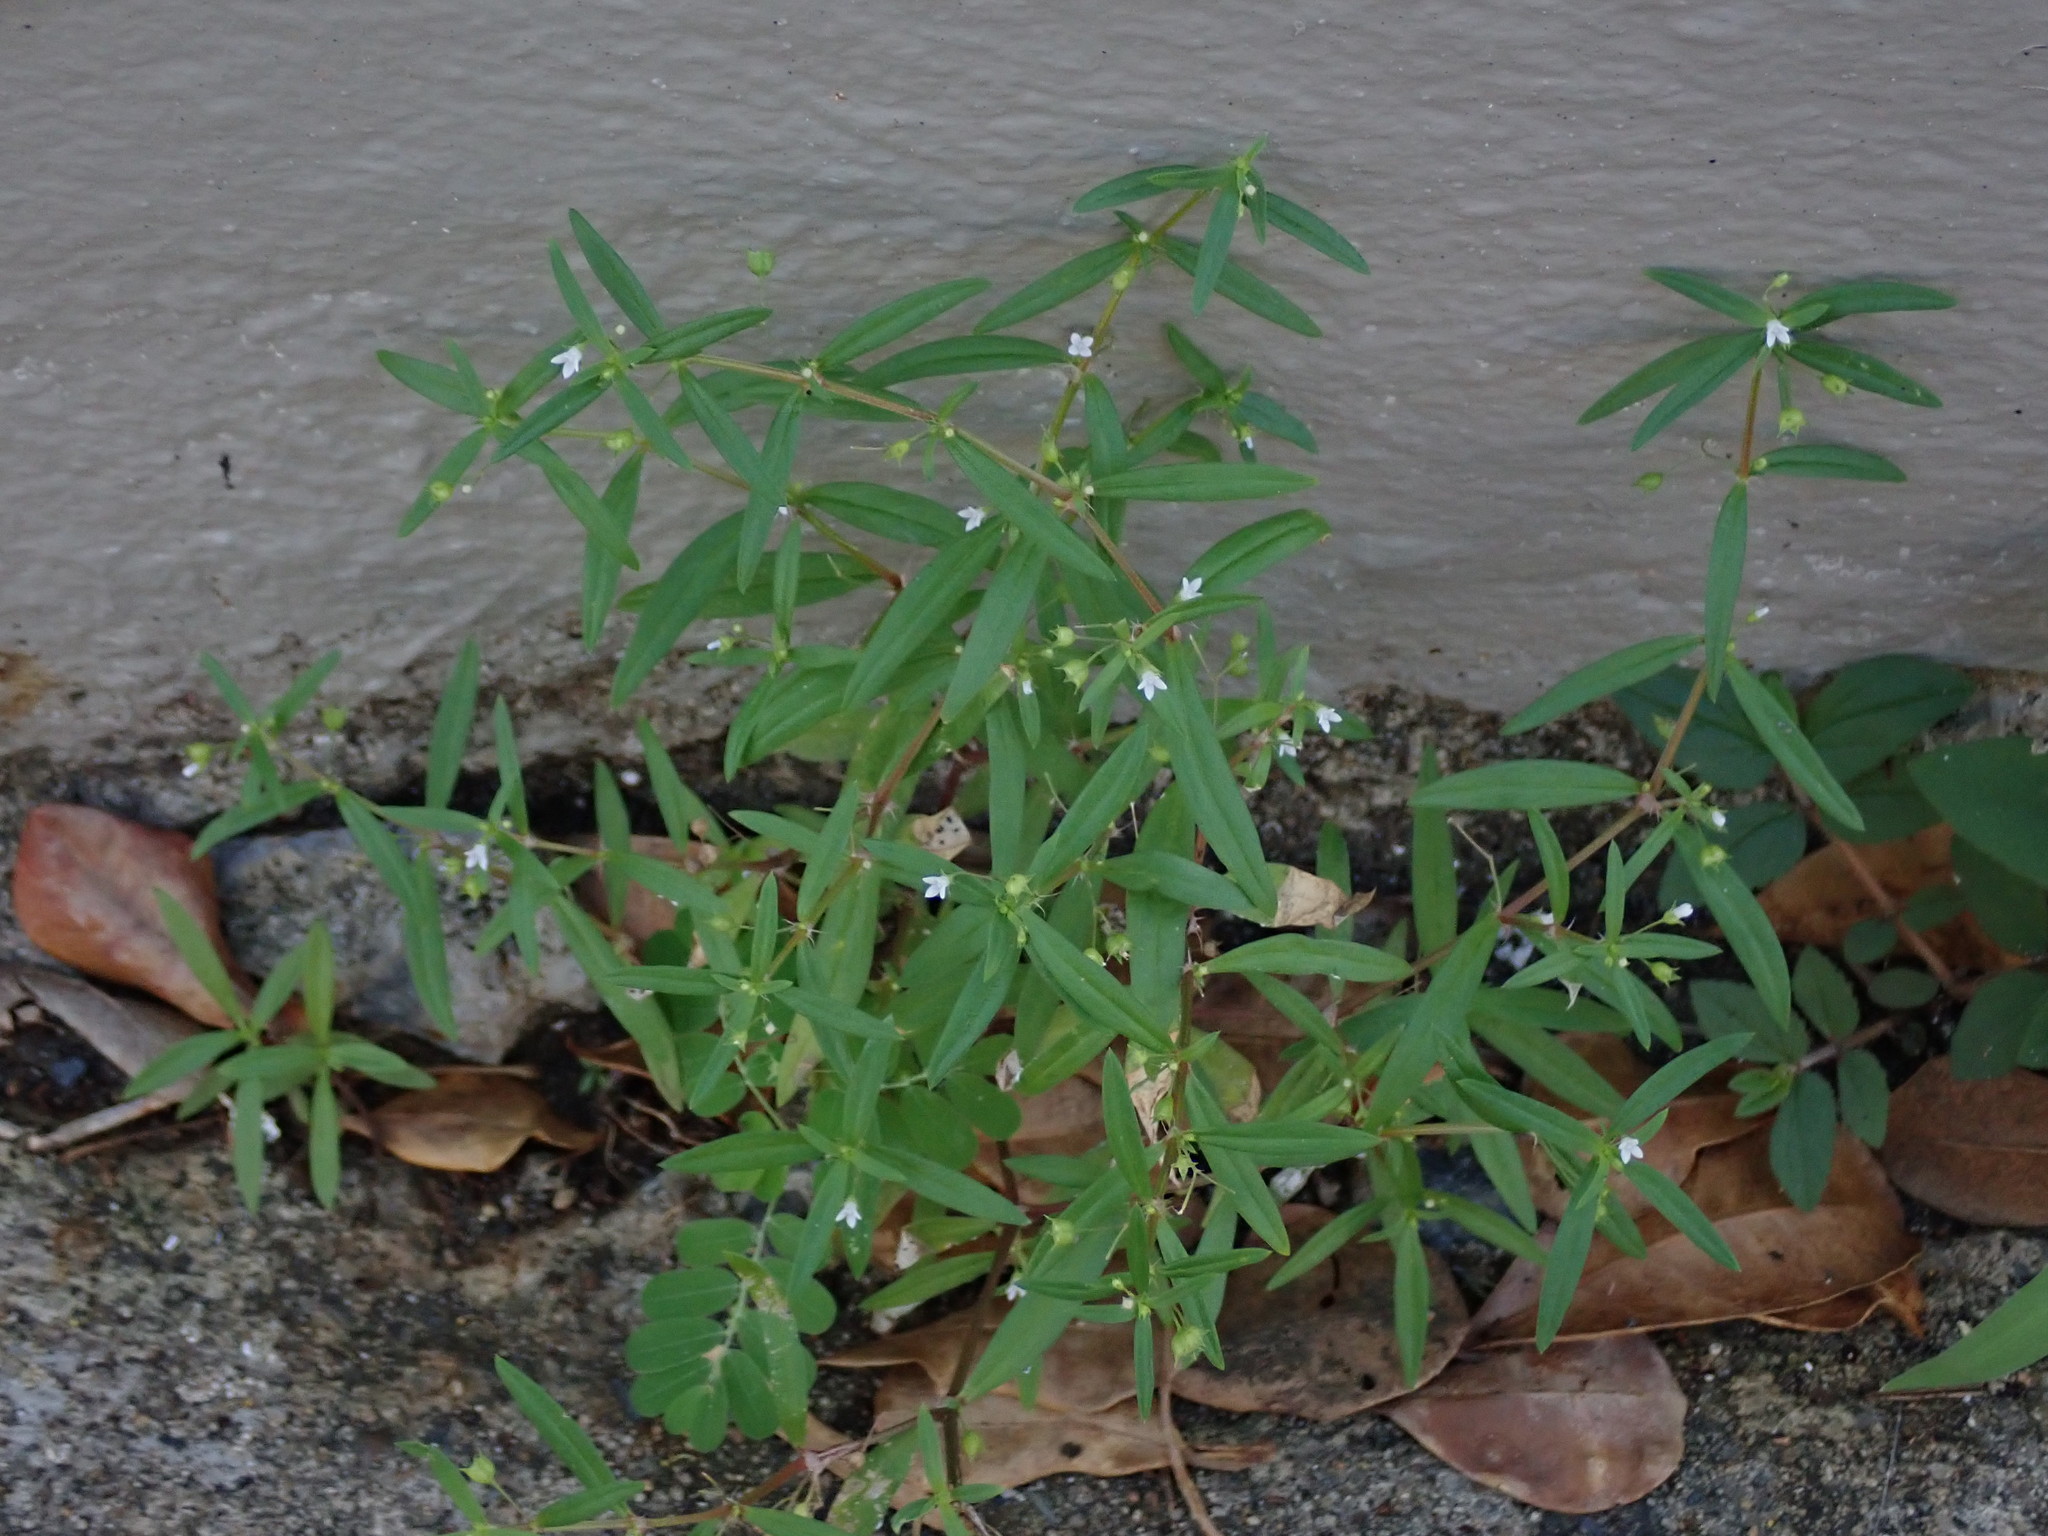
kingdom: Plantae
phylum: Tracheophyta
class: Magnoliopsida
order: Gentianales
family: Rubiaceae
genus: Oldenlandia
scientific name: Oldenlandia corymbosa
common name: Flat-top mille graines
